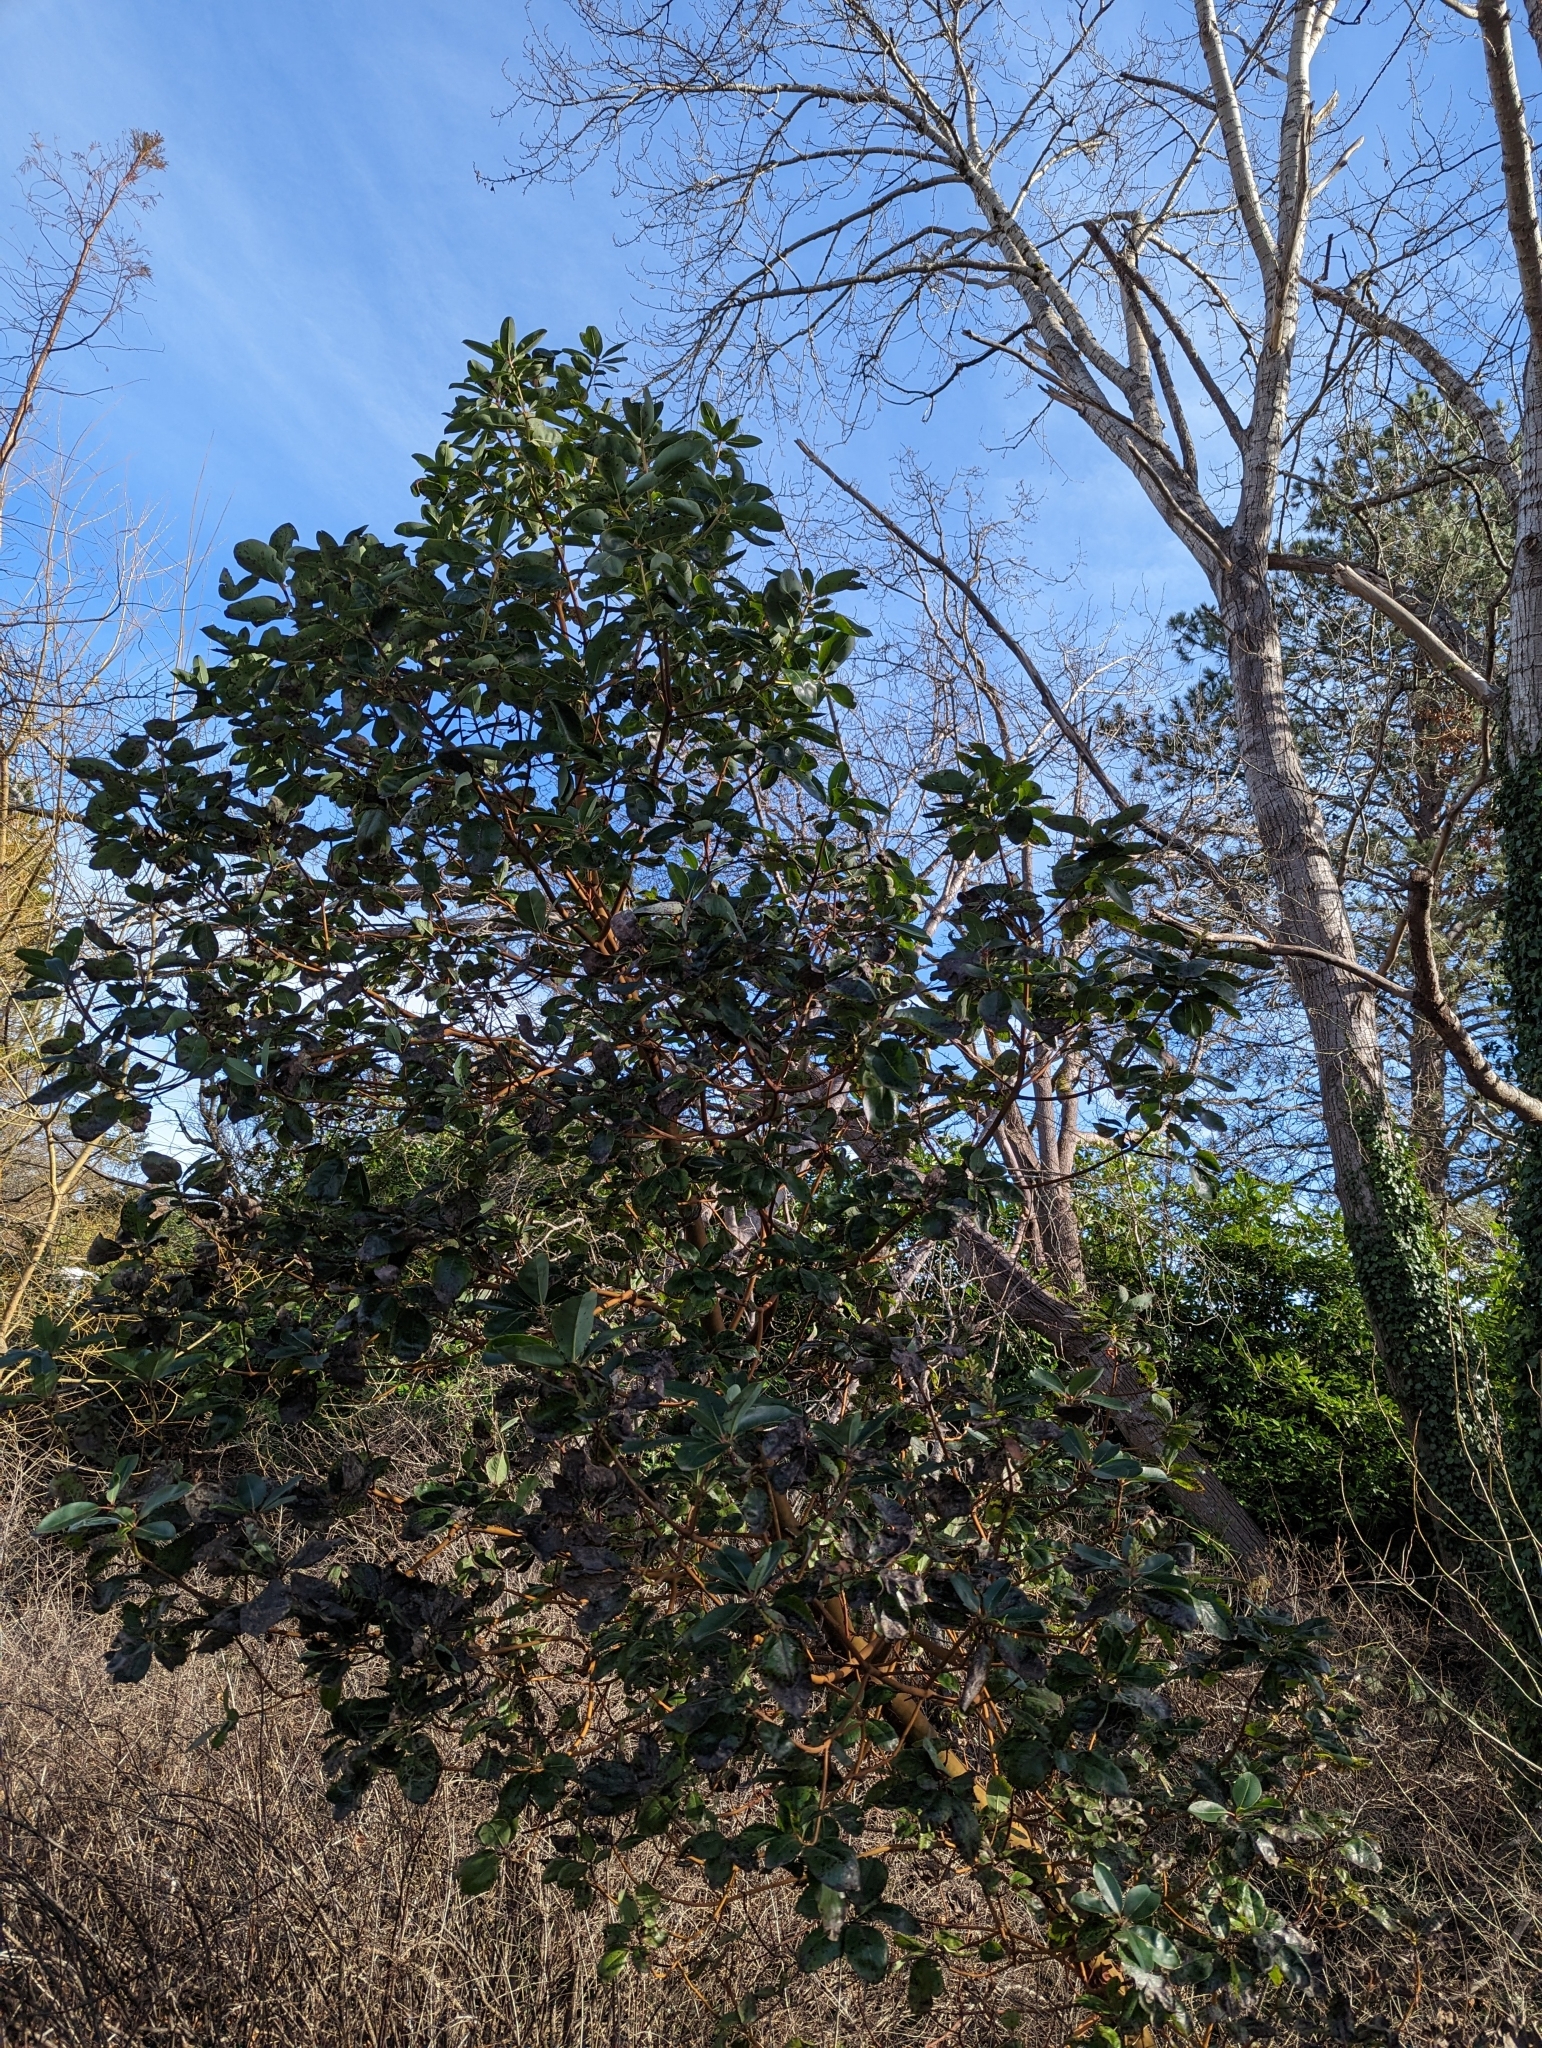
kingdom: Plantae
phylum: Tracheophyta
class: Magnoliopsida
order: Ericales
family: Ericaceae
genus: Arbutus
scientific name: Arbutus menziesii
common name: Pacific madrone
